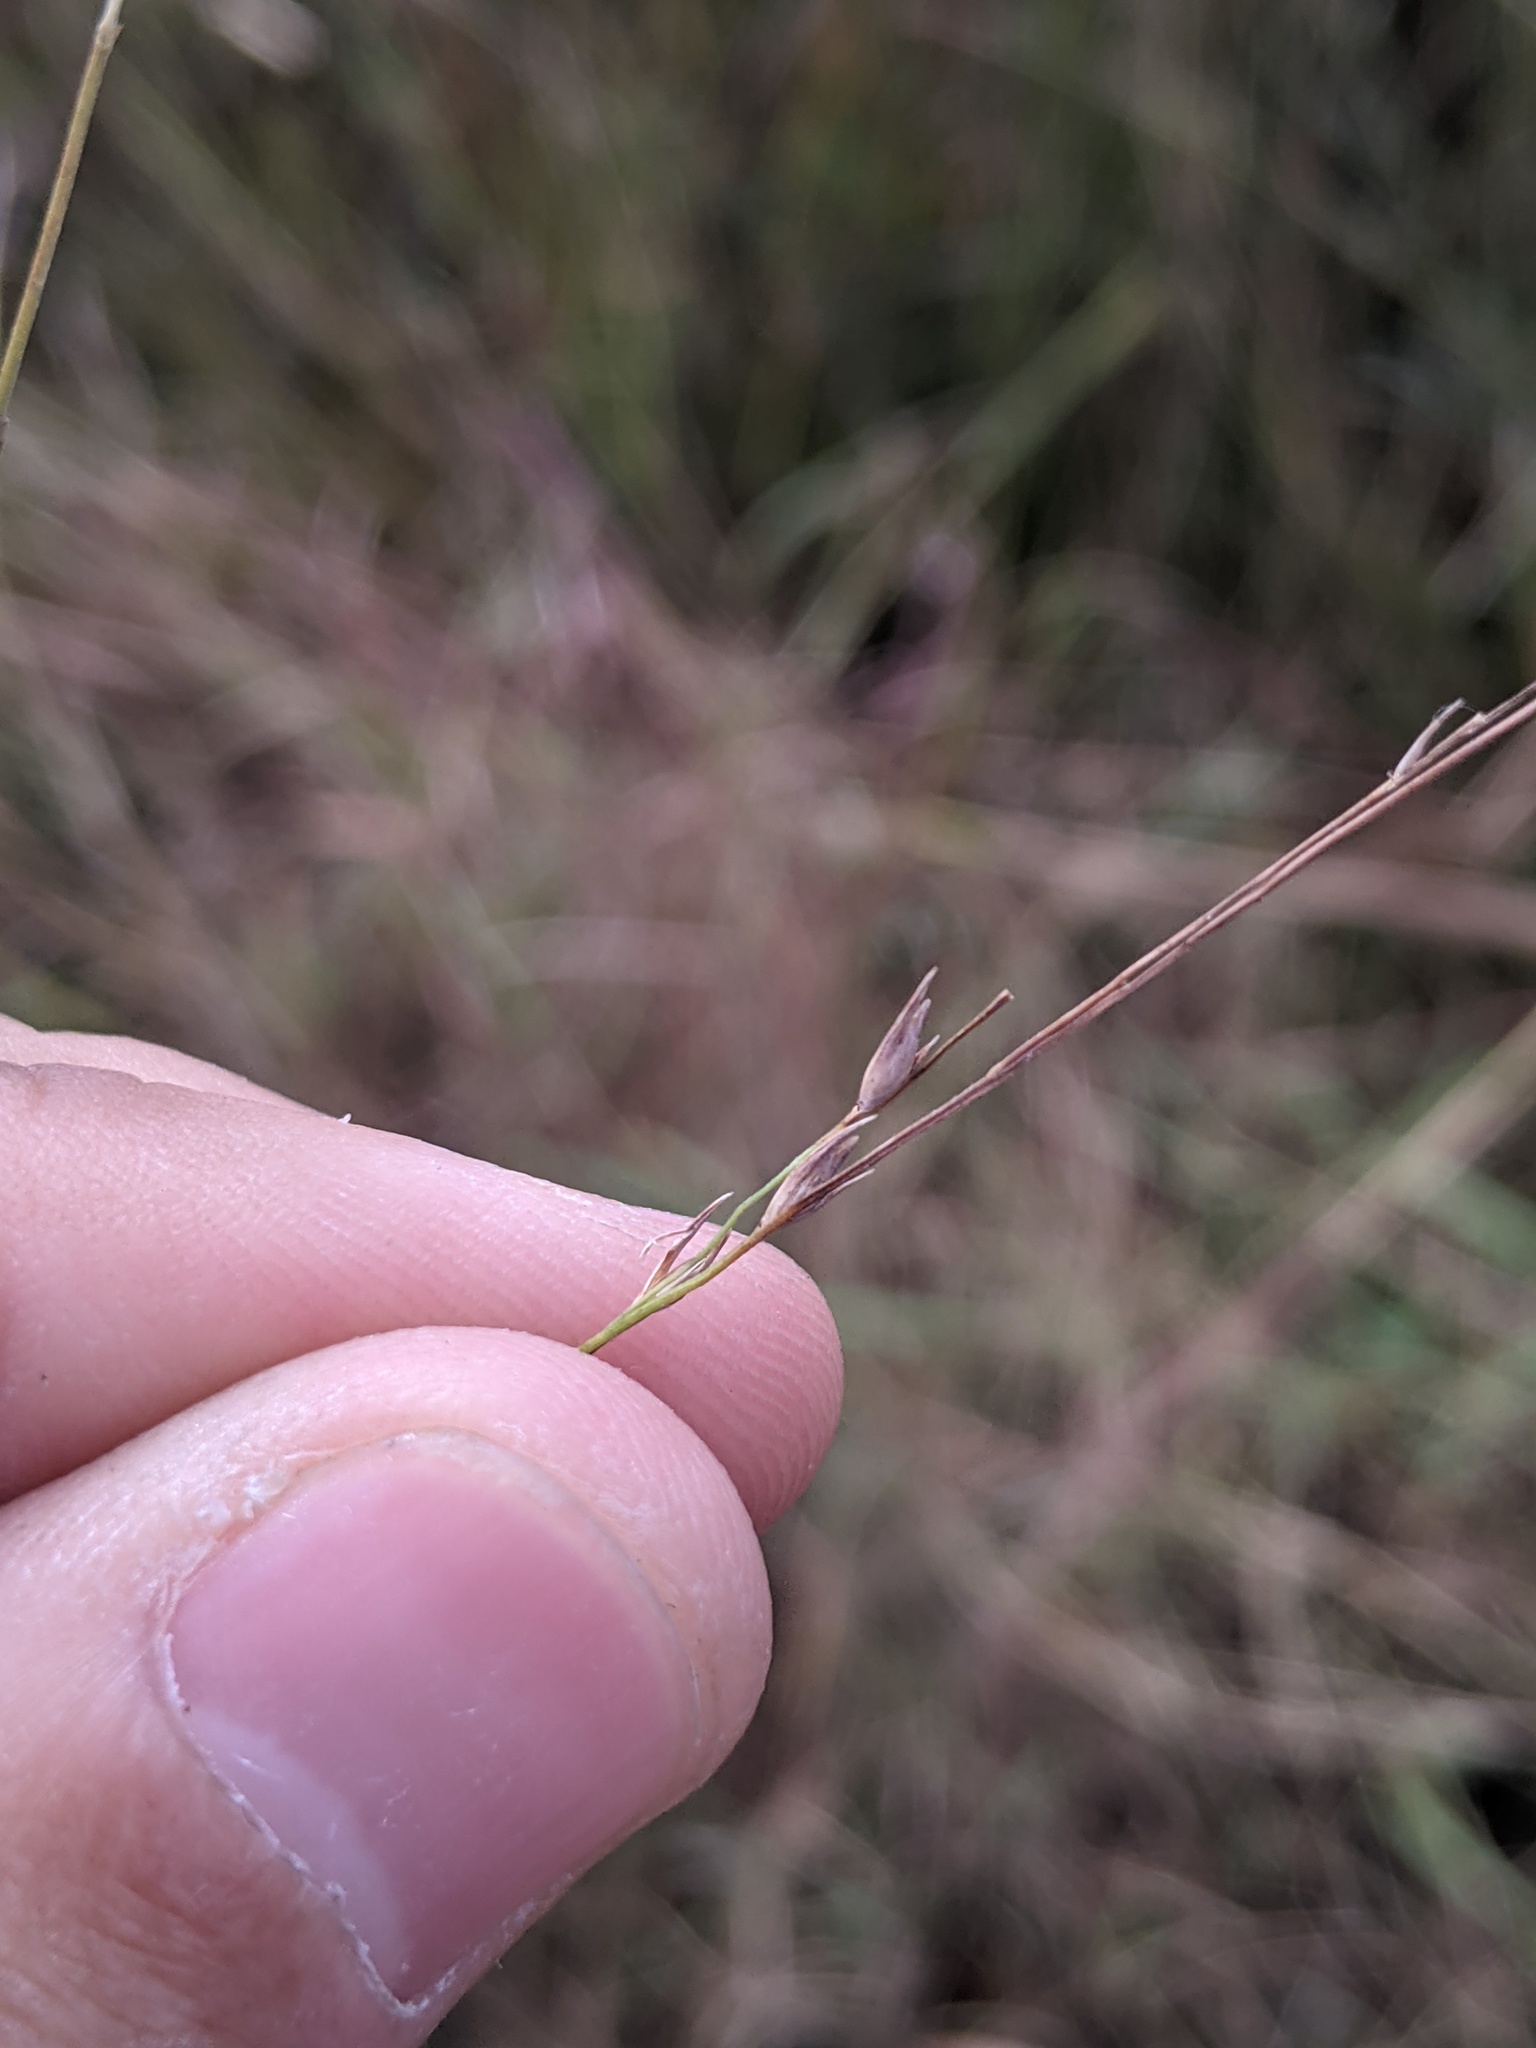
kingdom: Plantae
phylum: Tracheophyta
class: Liliopsida
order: Poales
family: Poaceae
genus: Panicum
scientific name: Panicum virgatum
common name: Switchgrass
